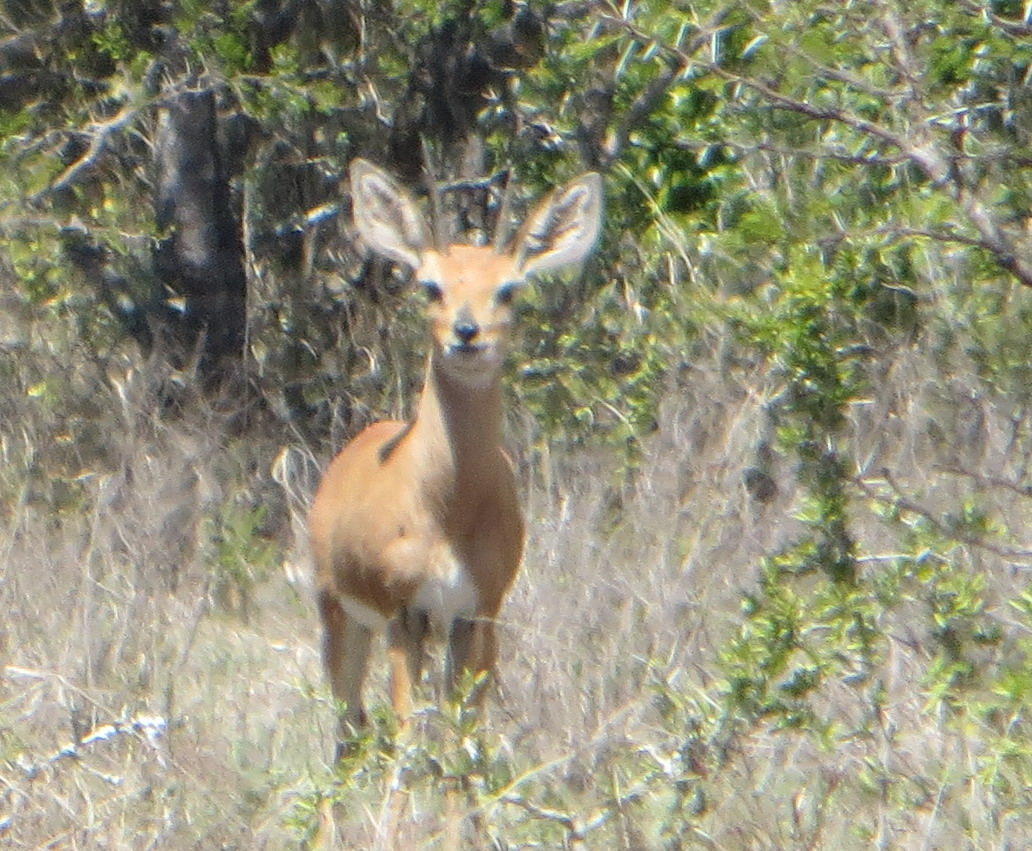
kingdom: Animalia
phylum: Chordata
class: Mammalia
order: Artiodactyla
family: Bovidae
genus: Raphicerus
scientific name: Raphicerus campestris
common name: Steenbok
